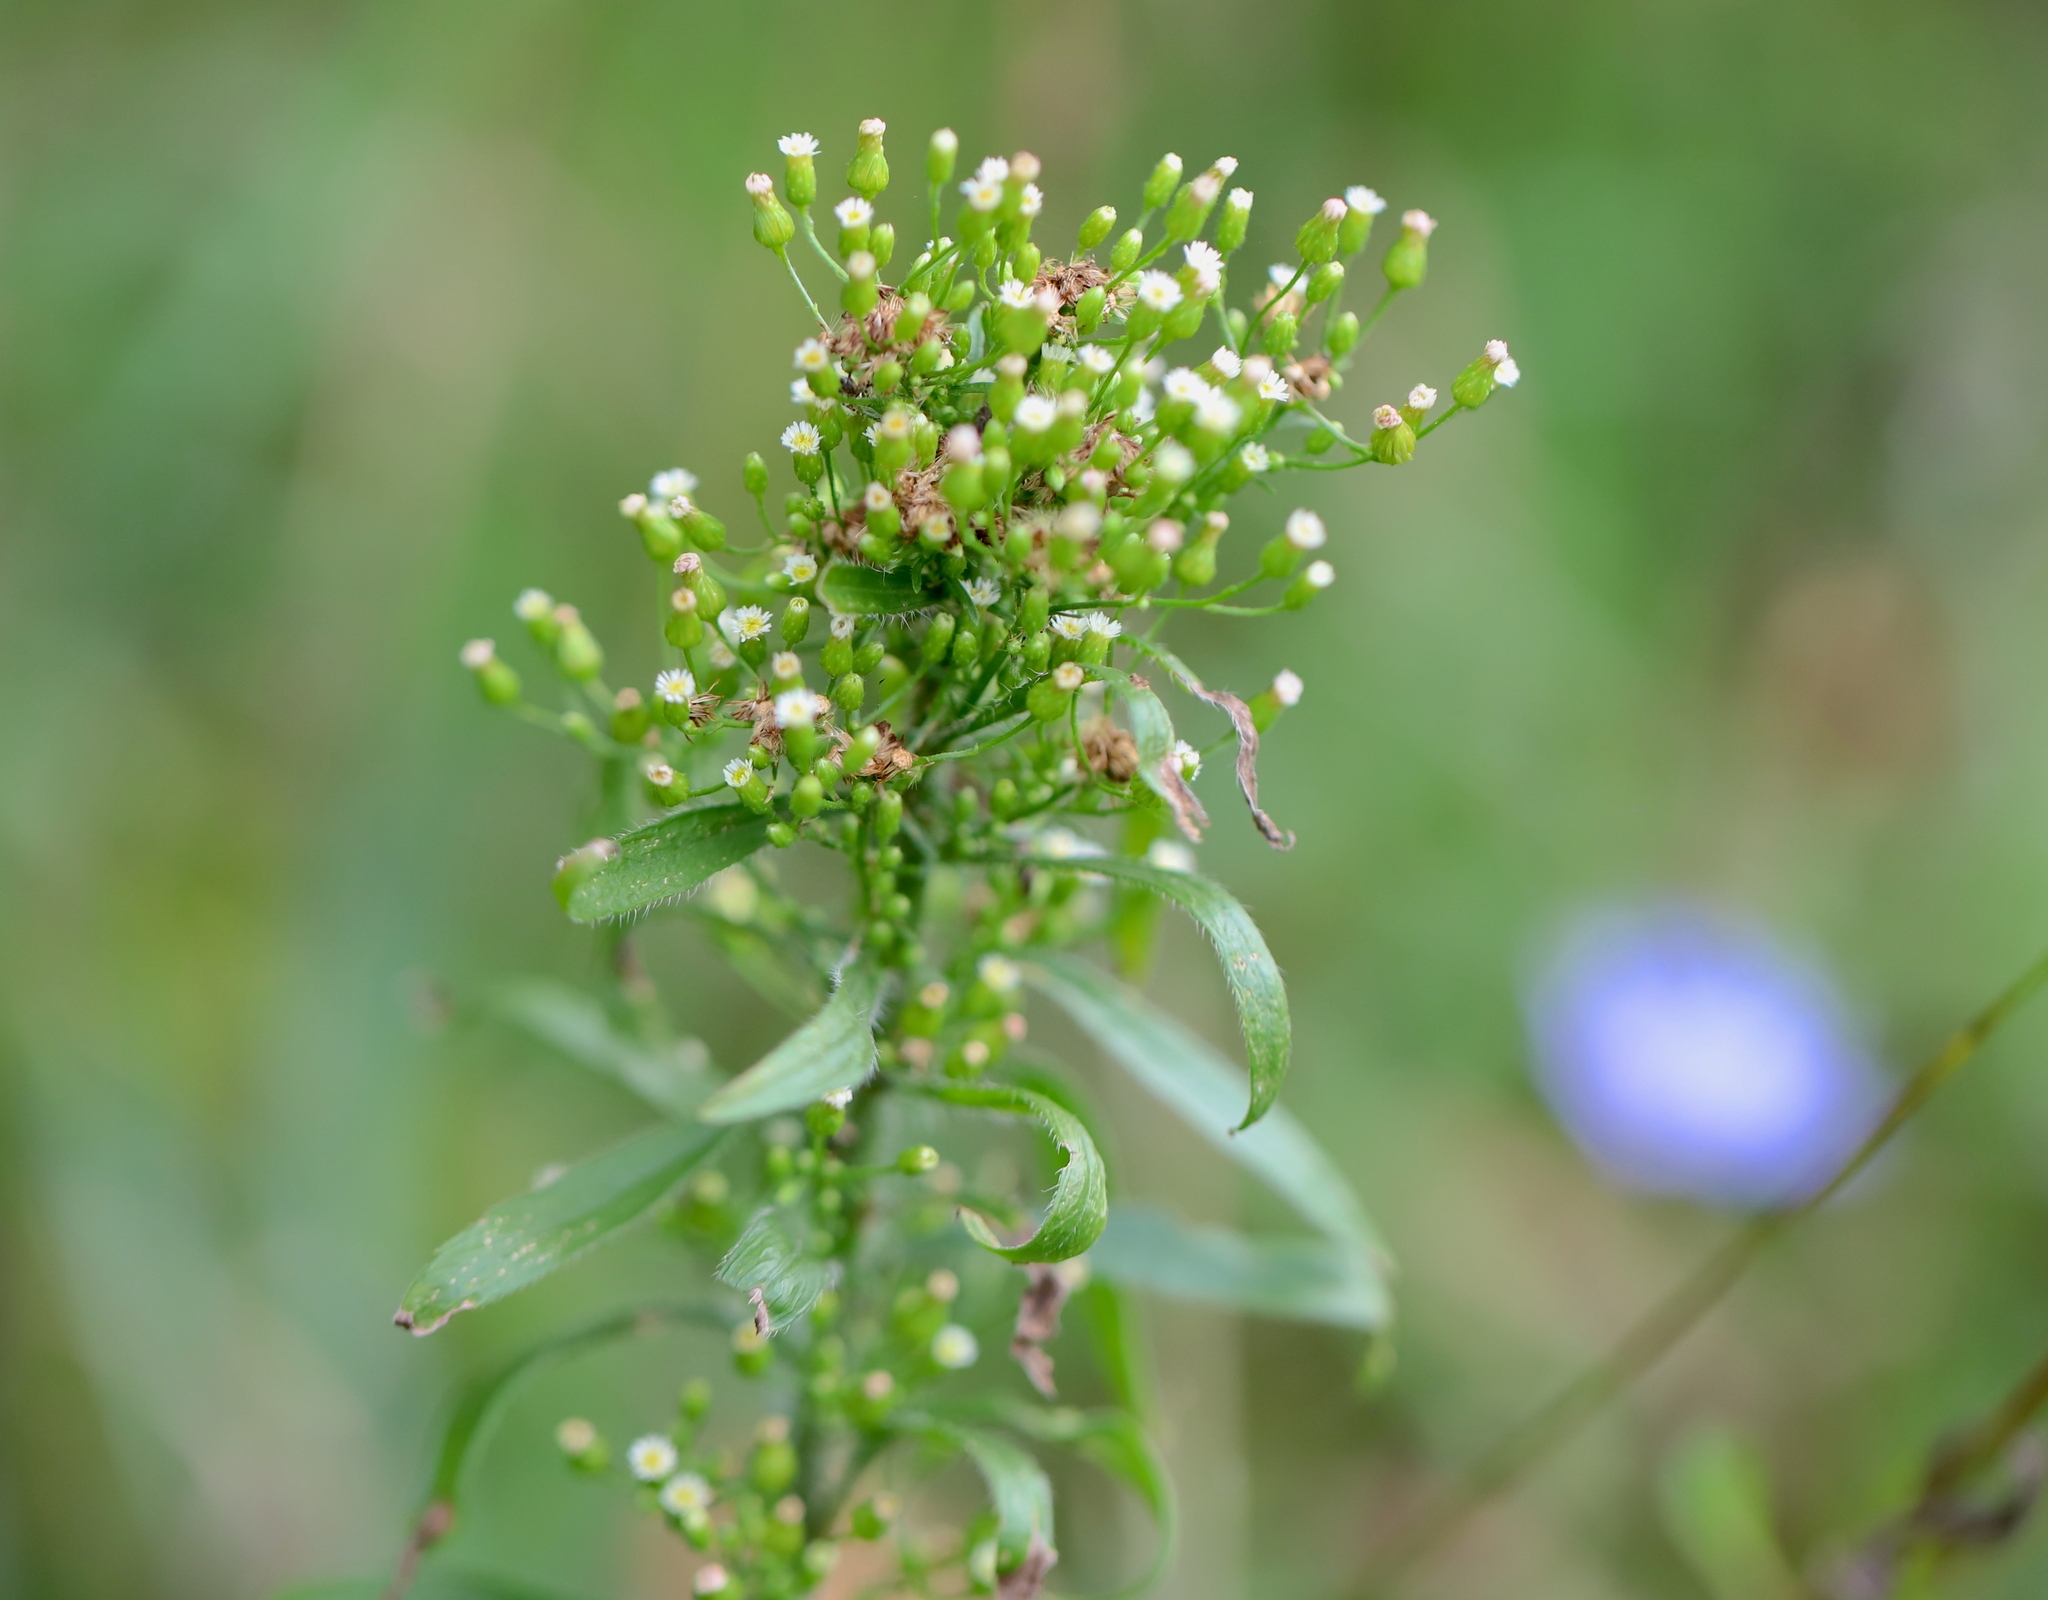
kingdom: Plantae
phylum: Tracheophyta
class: Magnoliopsida
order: Asterales
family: Asteraceae
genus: Erigeron
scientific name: Erigeron canadensis
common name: Canadian fleabane
